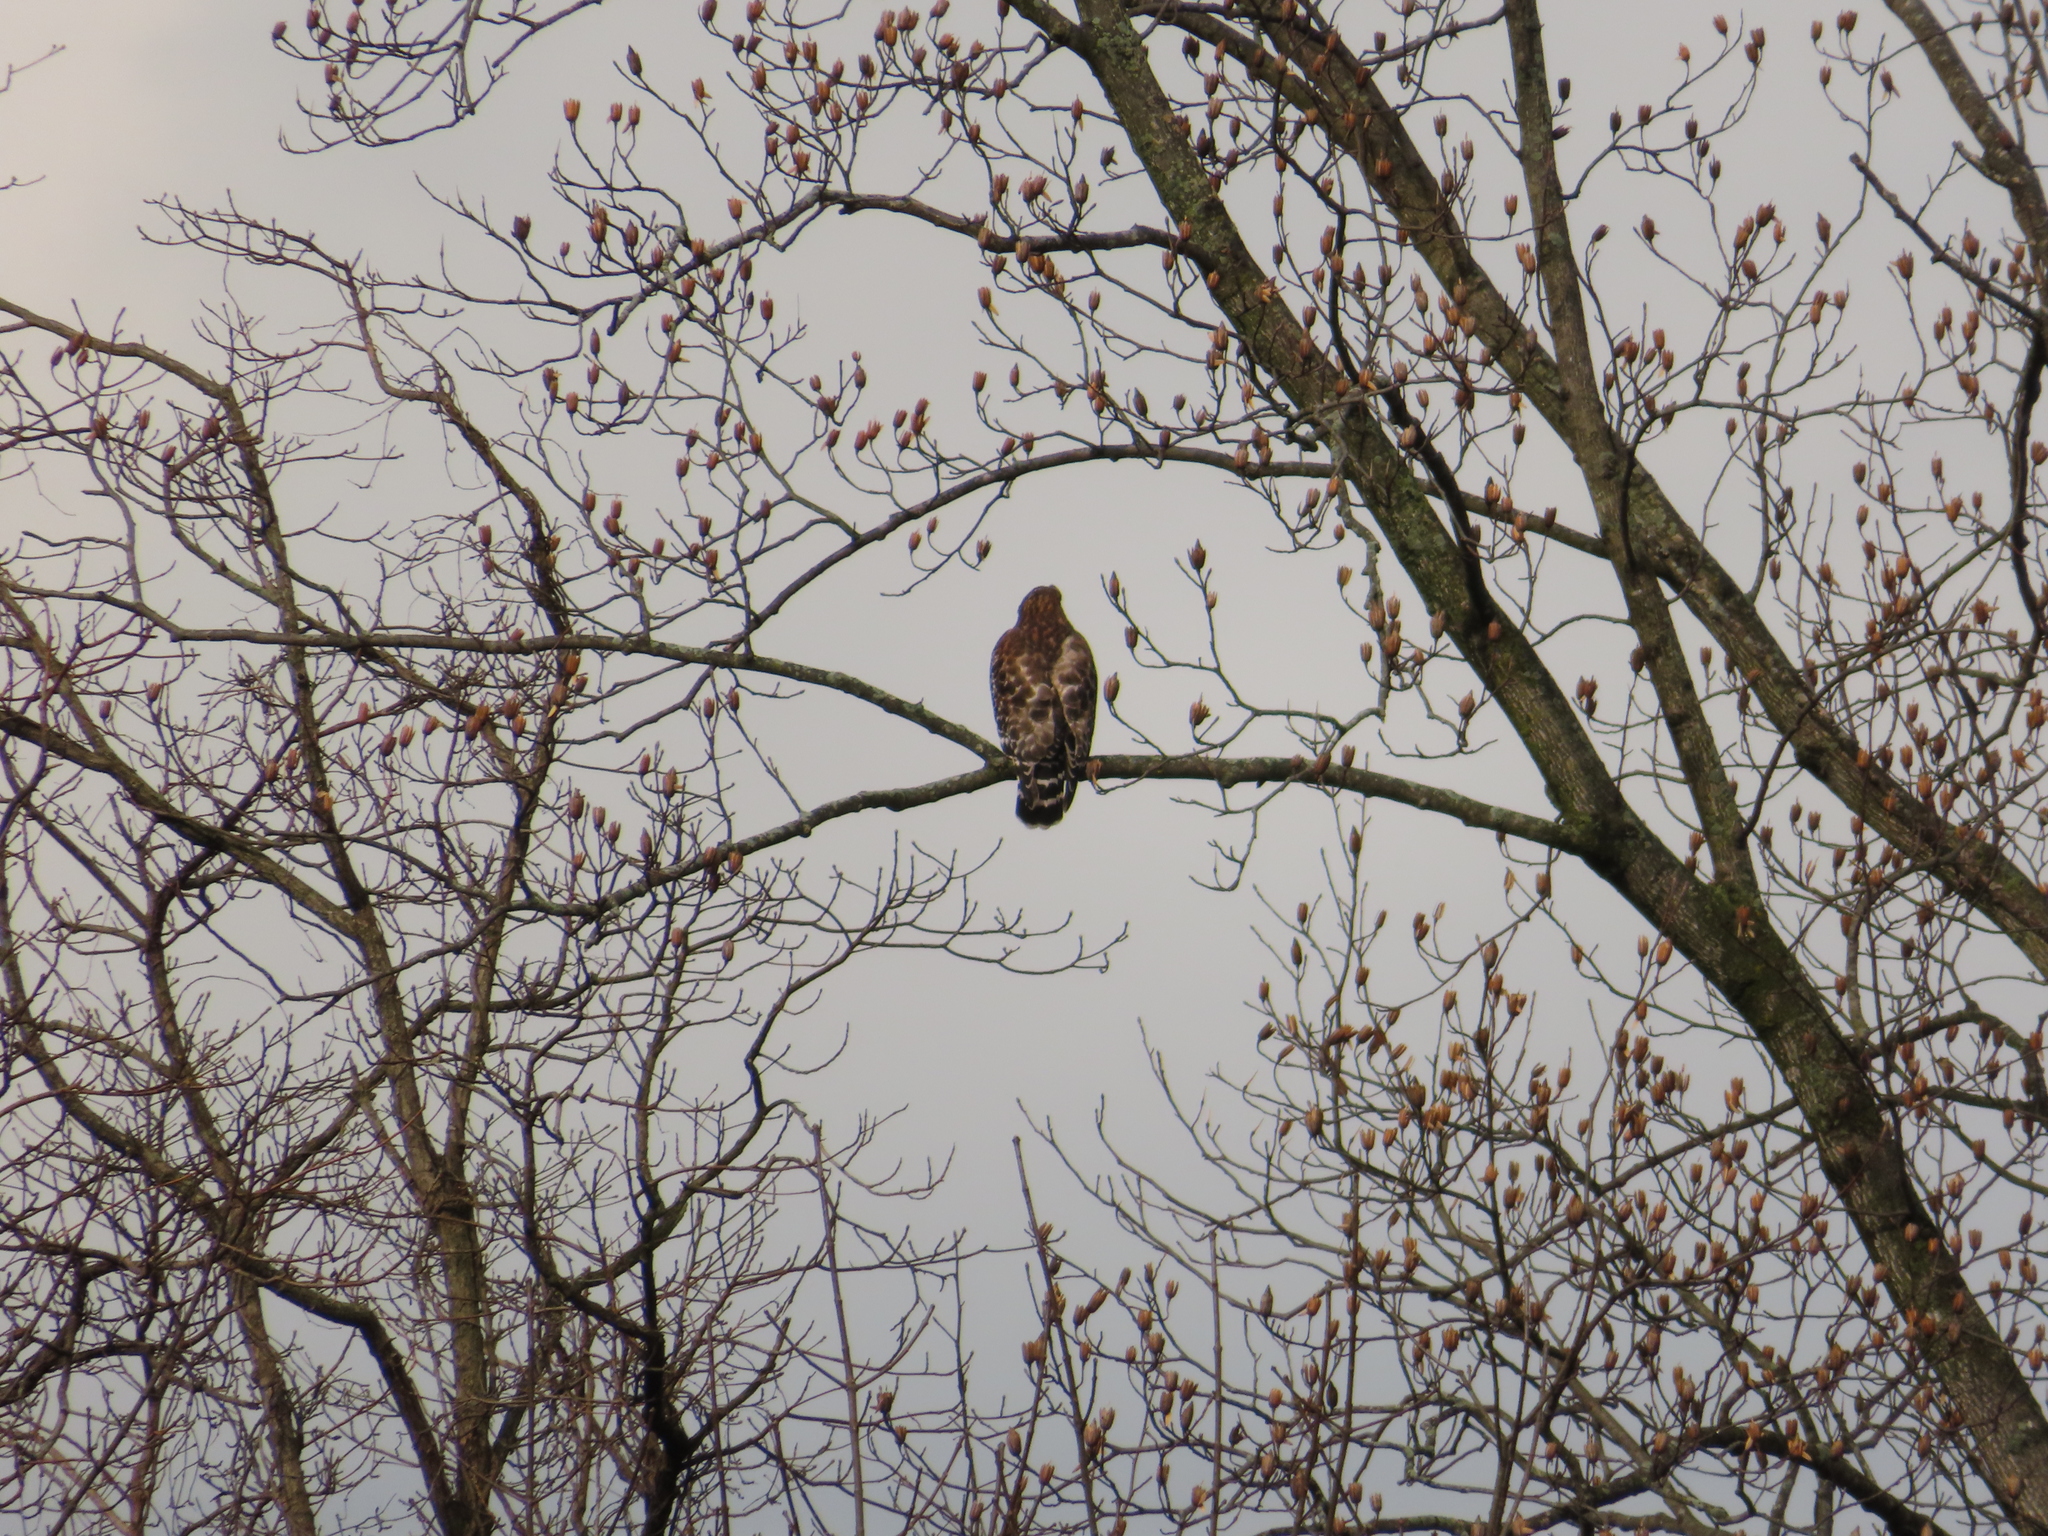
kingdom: Animalia
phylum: Chordata
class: Aves
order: Accipitriformes
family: Accipitridae
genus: Buteo
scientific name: Buteo lineatus
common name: Red-shouldered hawk
